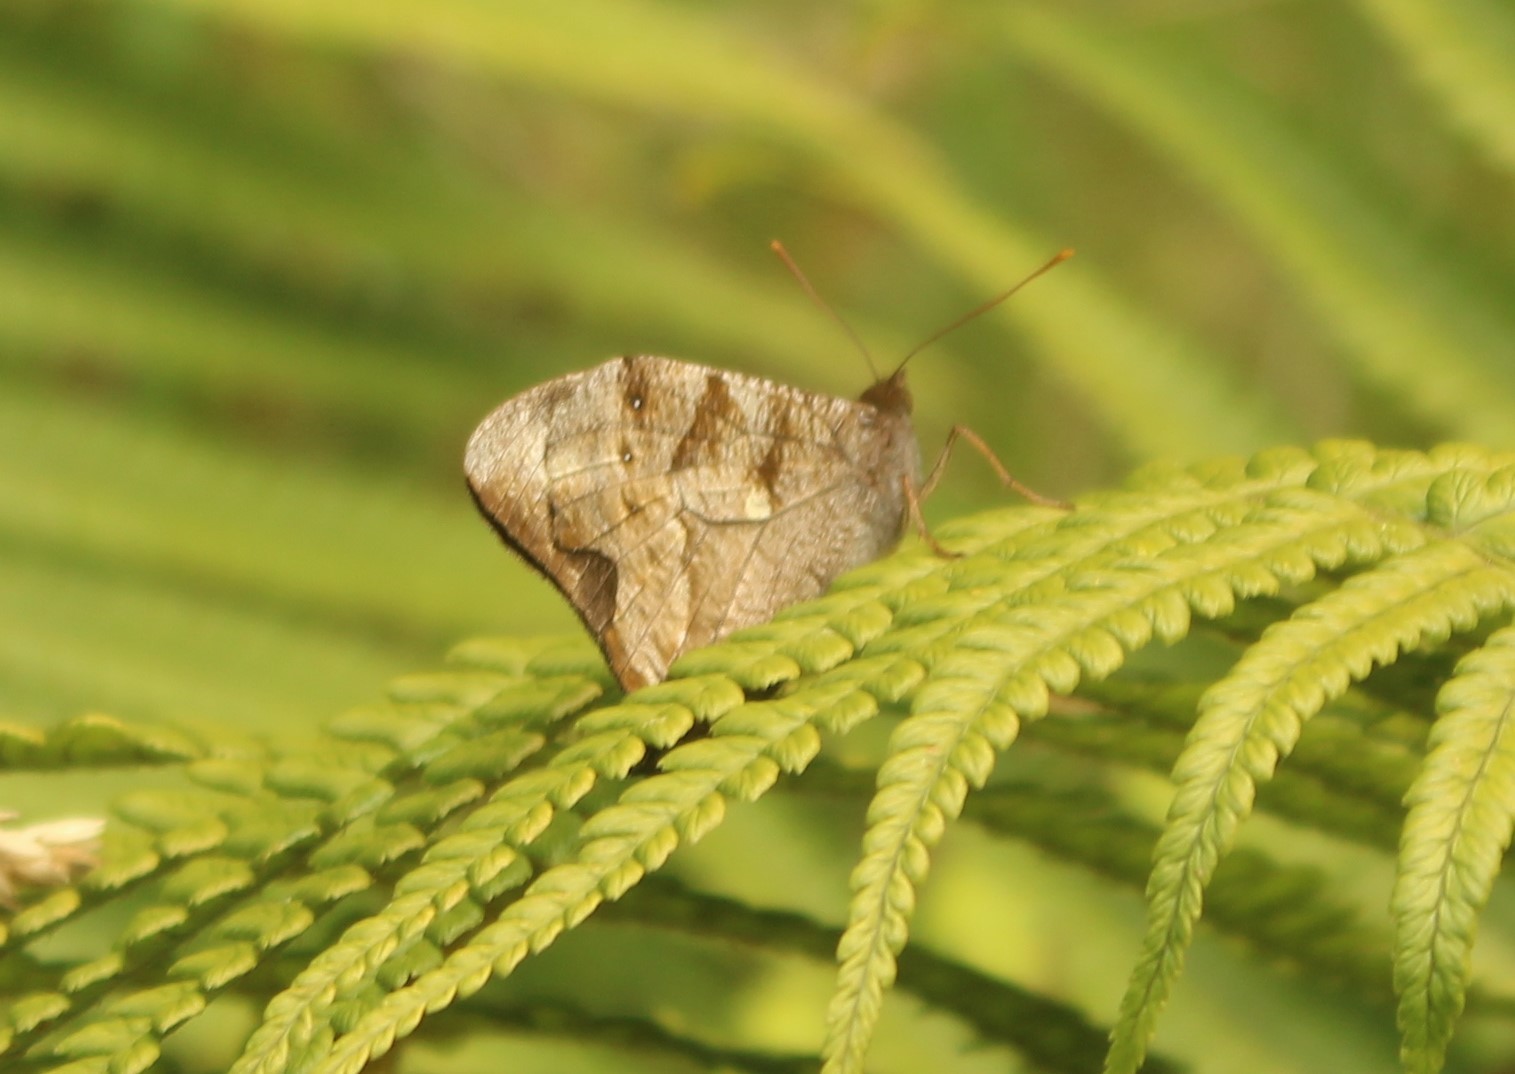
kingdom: Animalia
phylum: Arthropoda
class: Insecta
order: Lepidoptera
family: Nymphalidae
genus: Corades
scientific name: Corades medeba
